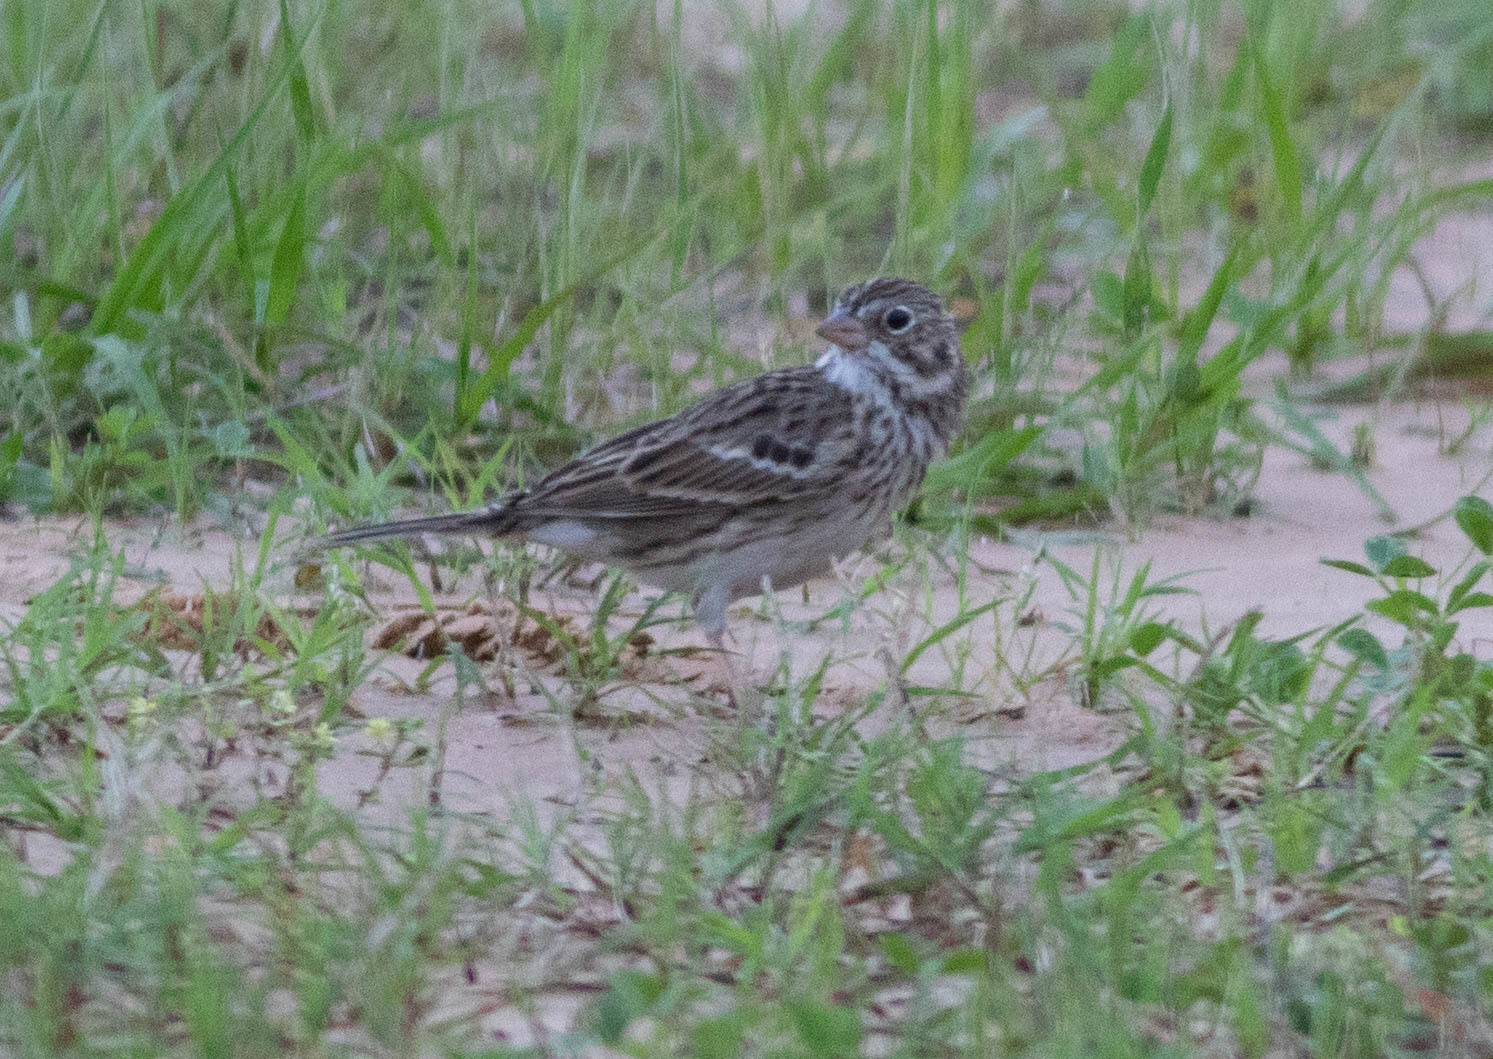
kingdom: Animalia
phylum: Chordata
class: Aves
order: Passeriformes
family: Passerellidae
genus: Pooecetes
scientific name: Pooecetes gramineus
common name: Vesper sparrow
